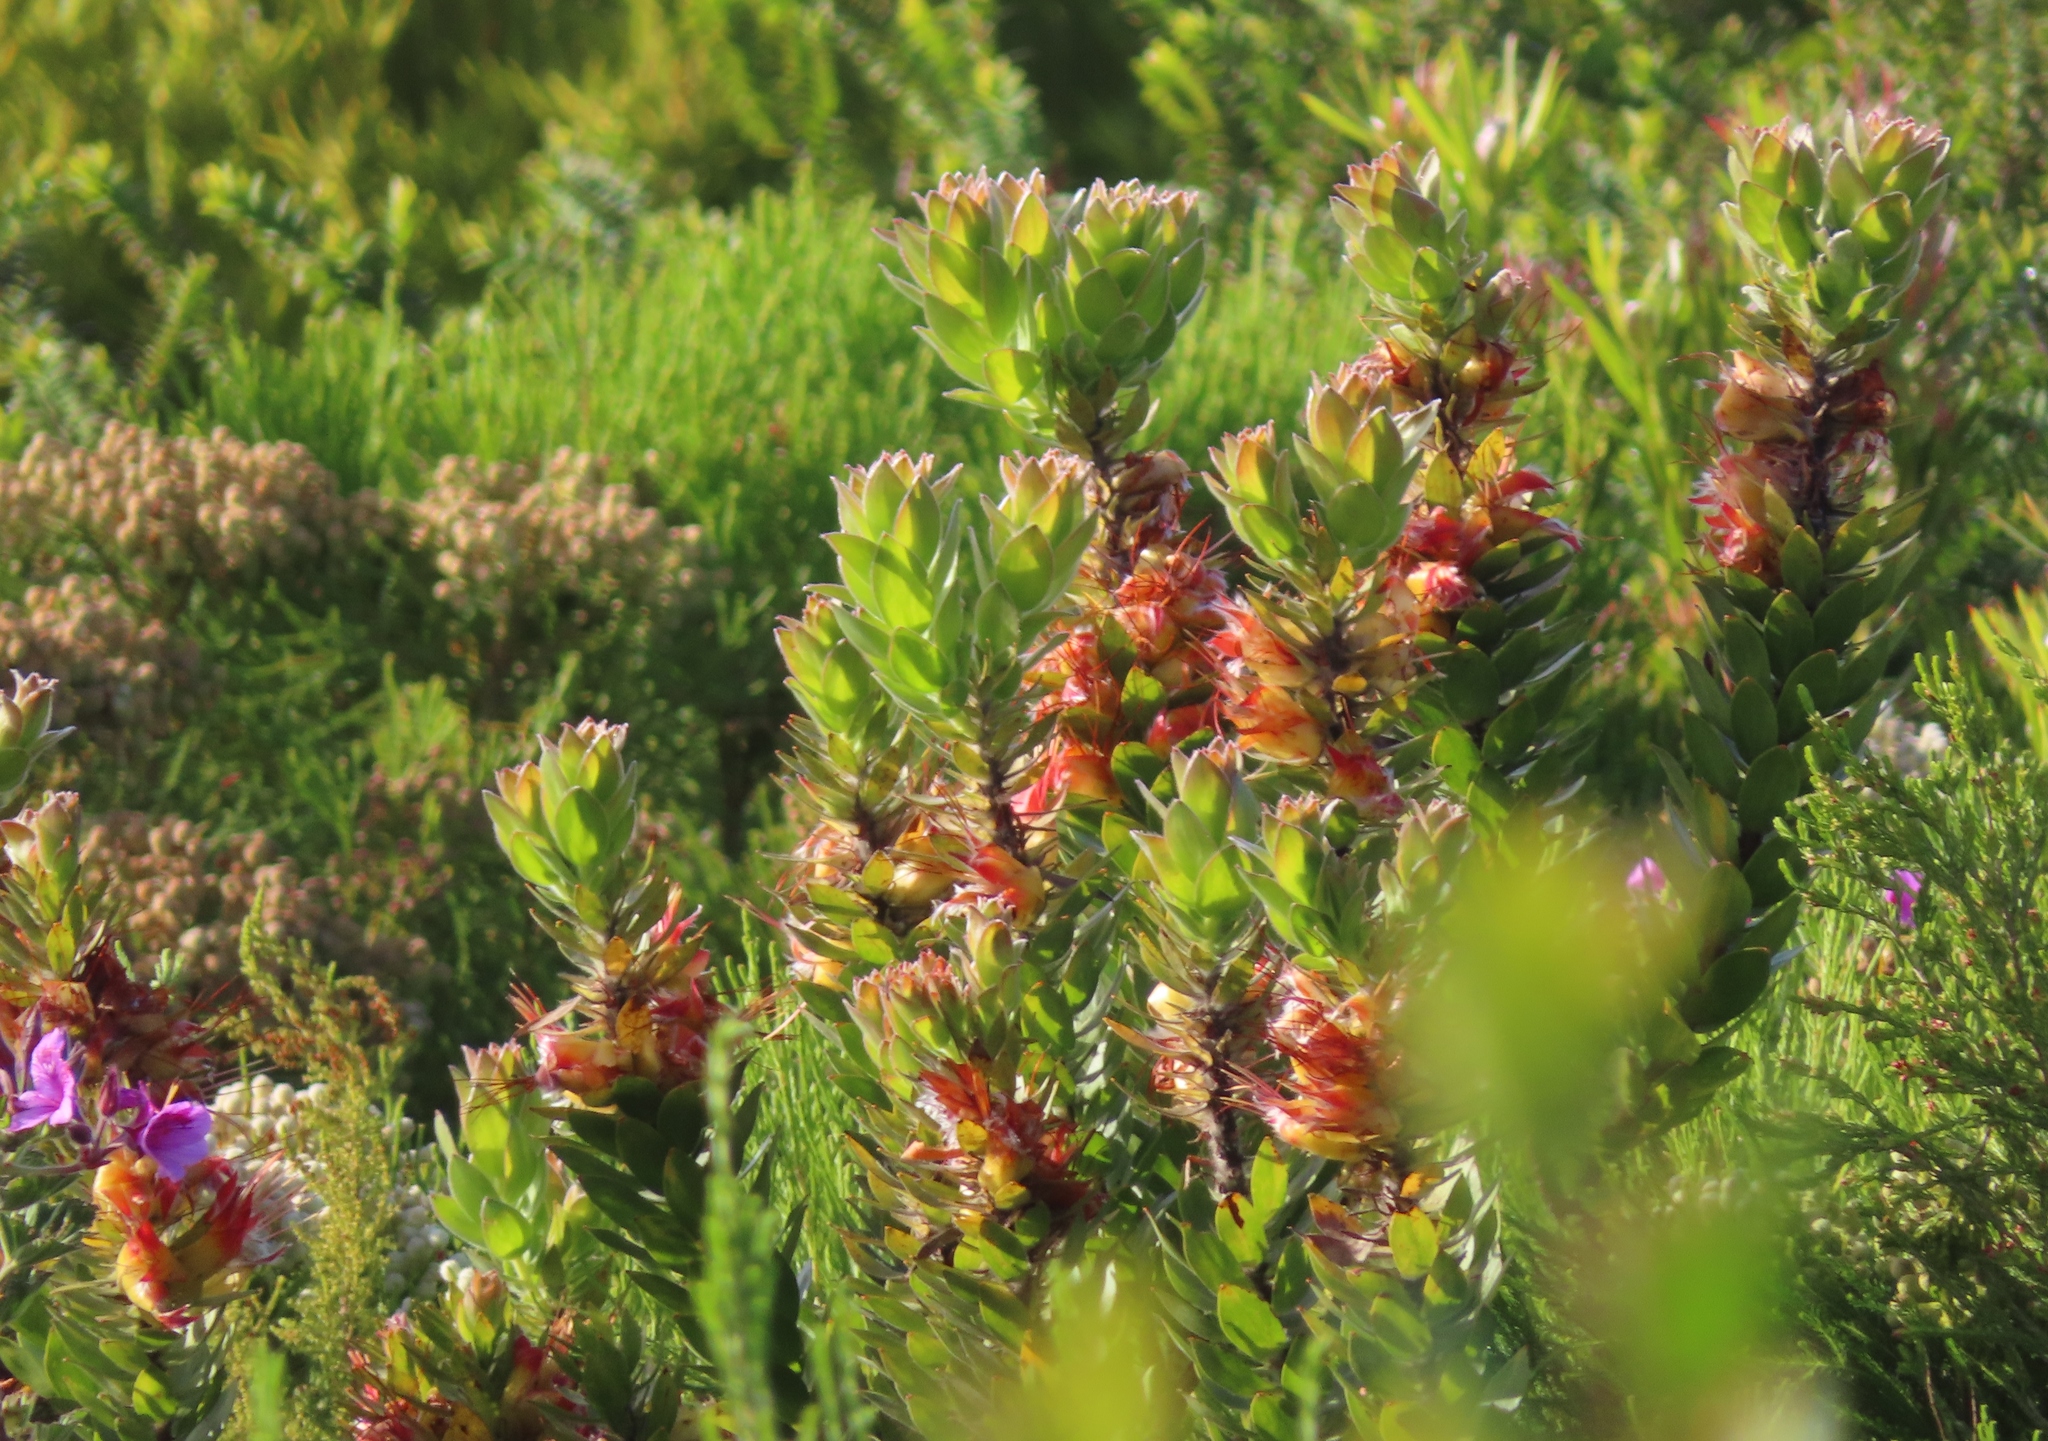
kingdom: Plantae
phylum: Tracheophyta
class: Magnoliopsida
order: Proteales
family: Proteaceae
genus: Mimetes
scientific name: Mimetes hirtus
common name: Marsh pagoda
